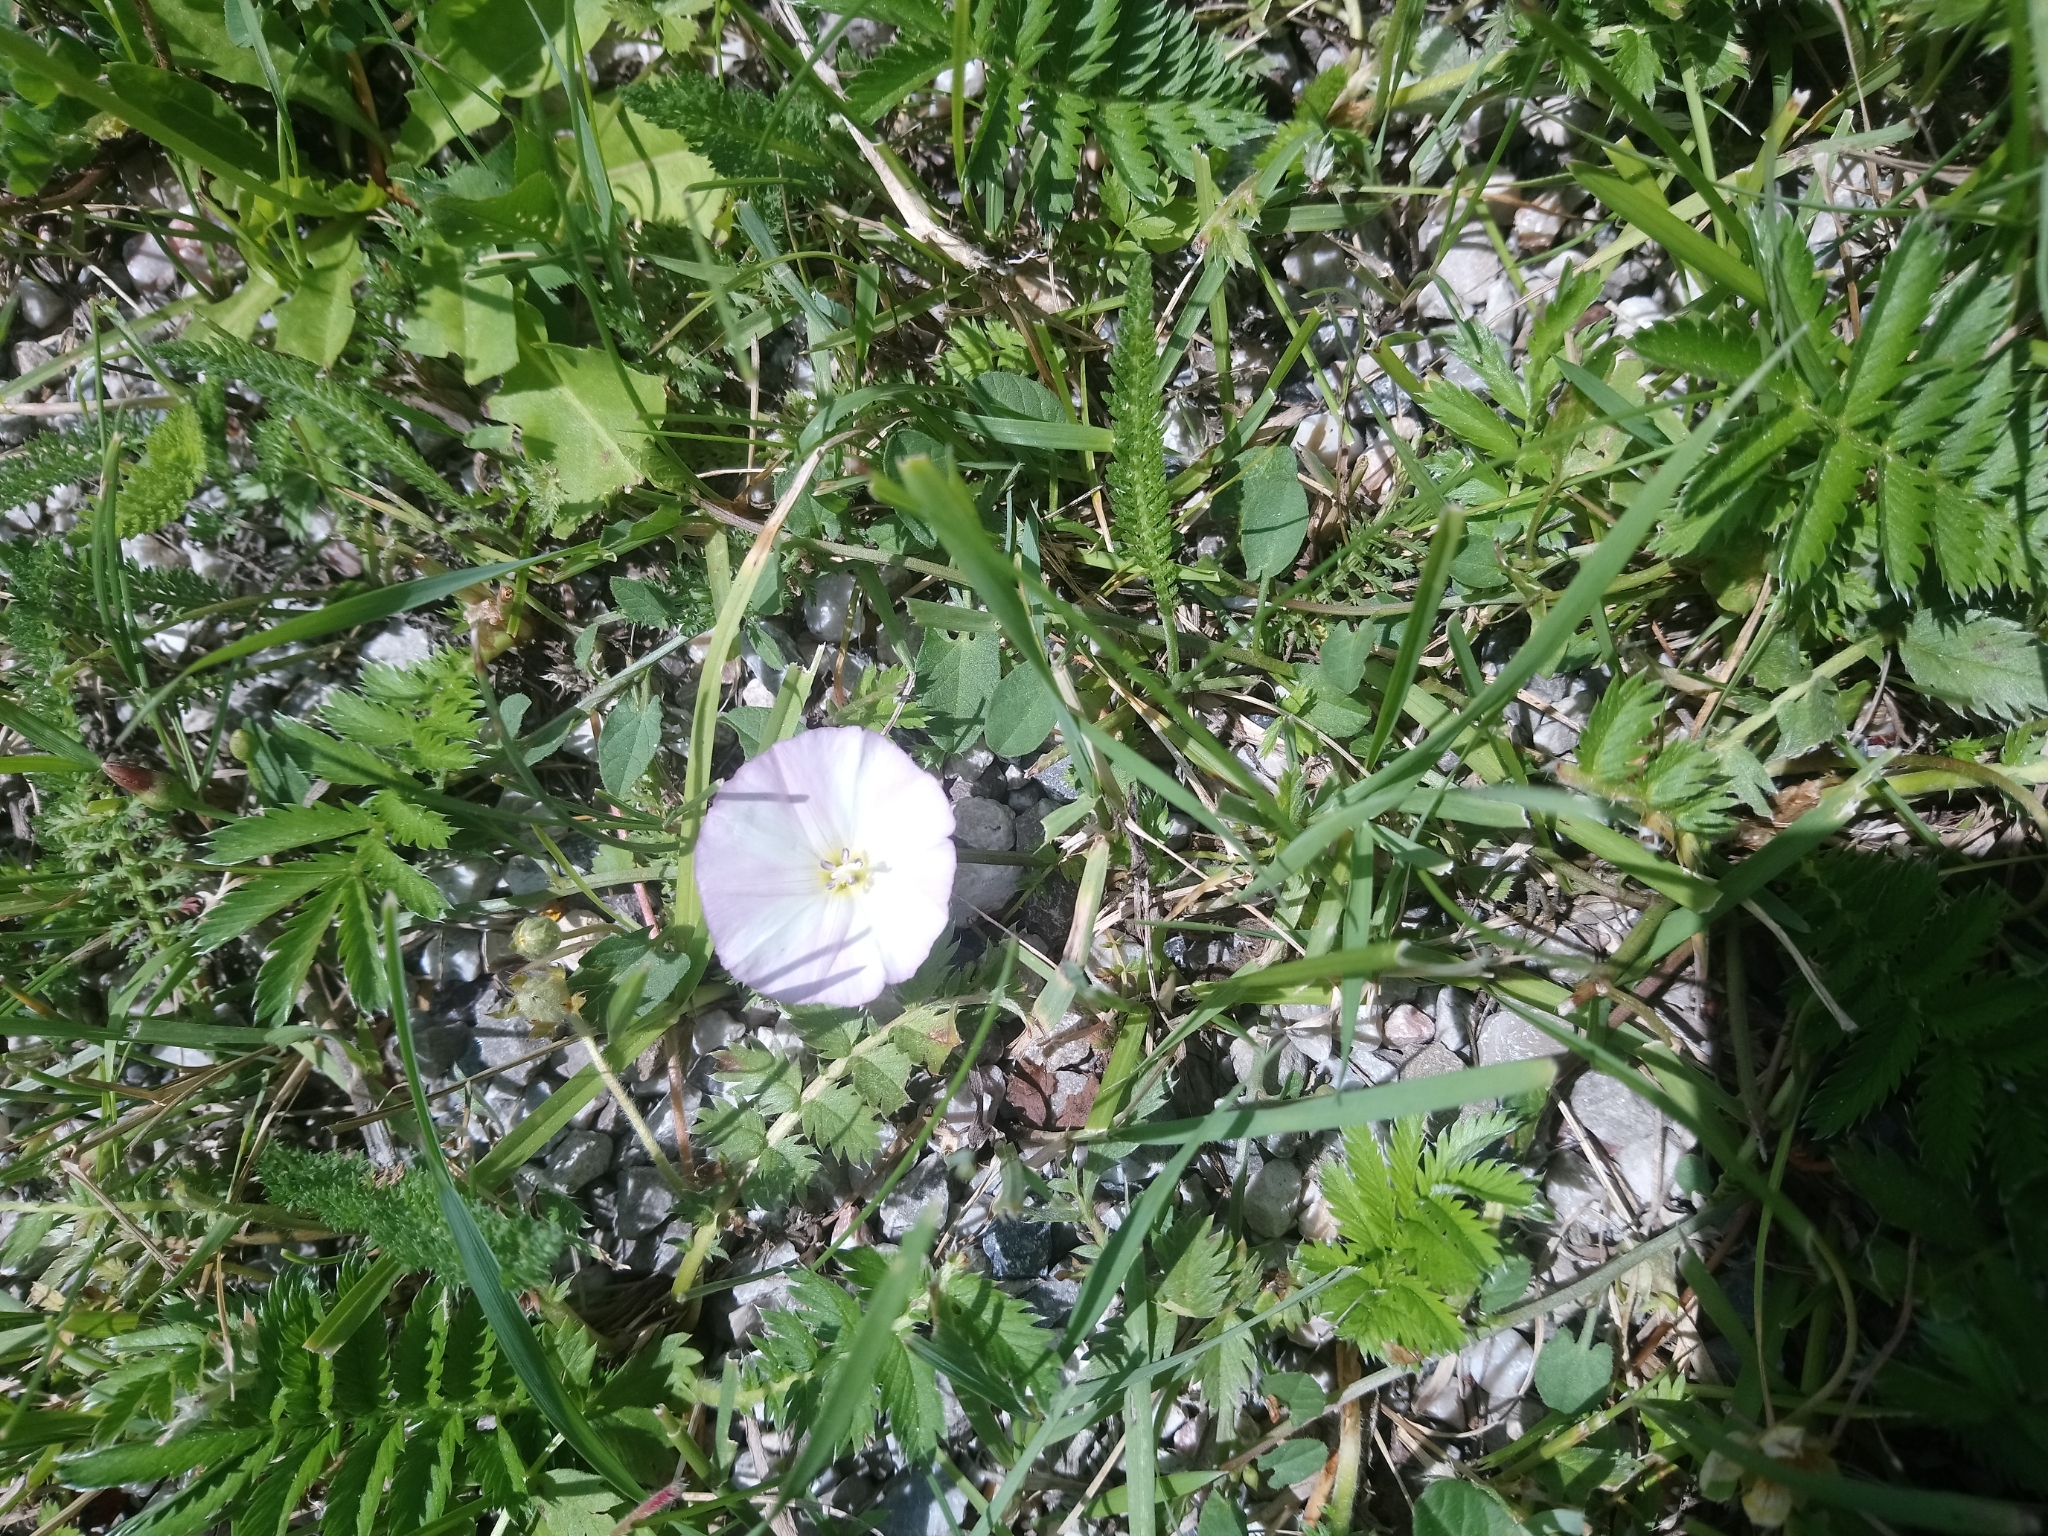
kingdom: Plantae
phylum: Tracheophyta
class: Magnoliopsida
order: Solanales
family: Convolvulaceae
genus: Convolvulus
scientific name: Convolvulus arvensis
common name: Field bindweed
